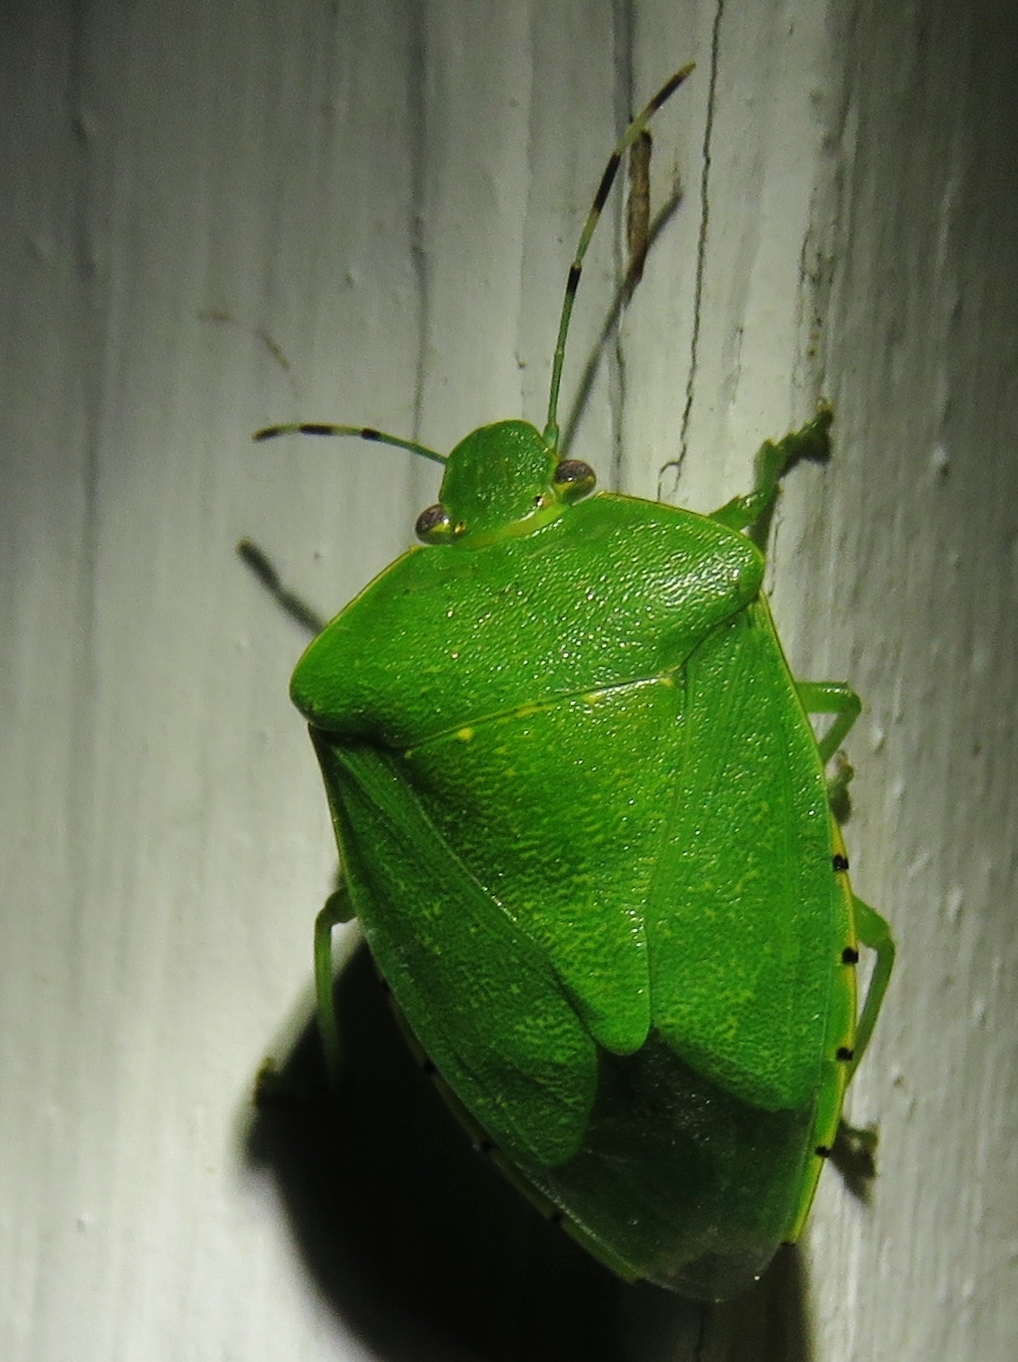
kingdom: Animalia
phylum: Arthropoda
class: Insecta
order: Hemiptera
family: Pentatomidae
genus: Chinavia
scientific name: Chinavia hilaris
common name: Green stink bug
